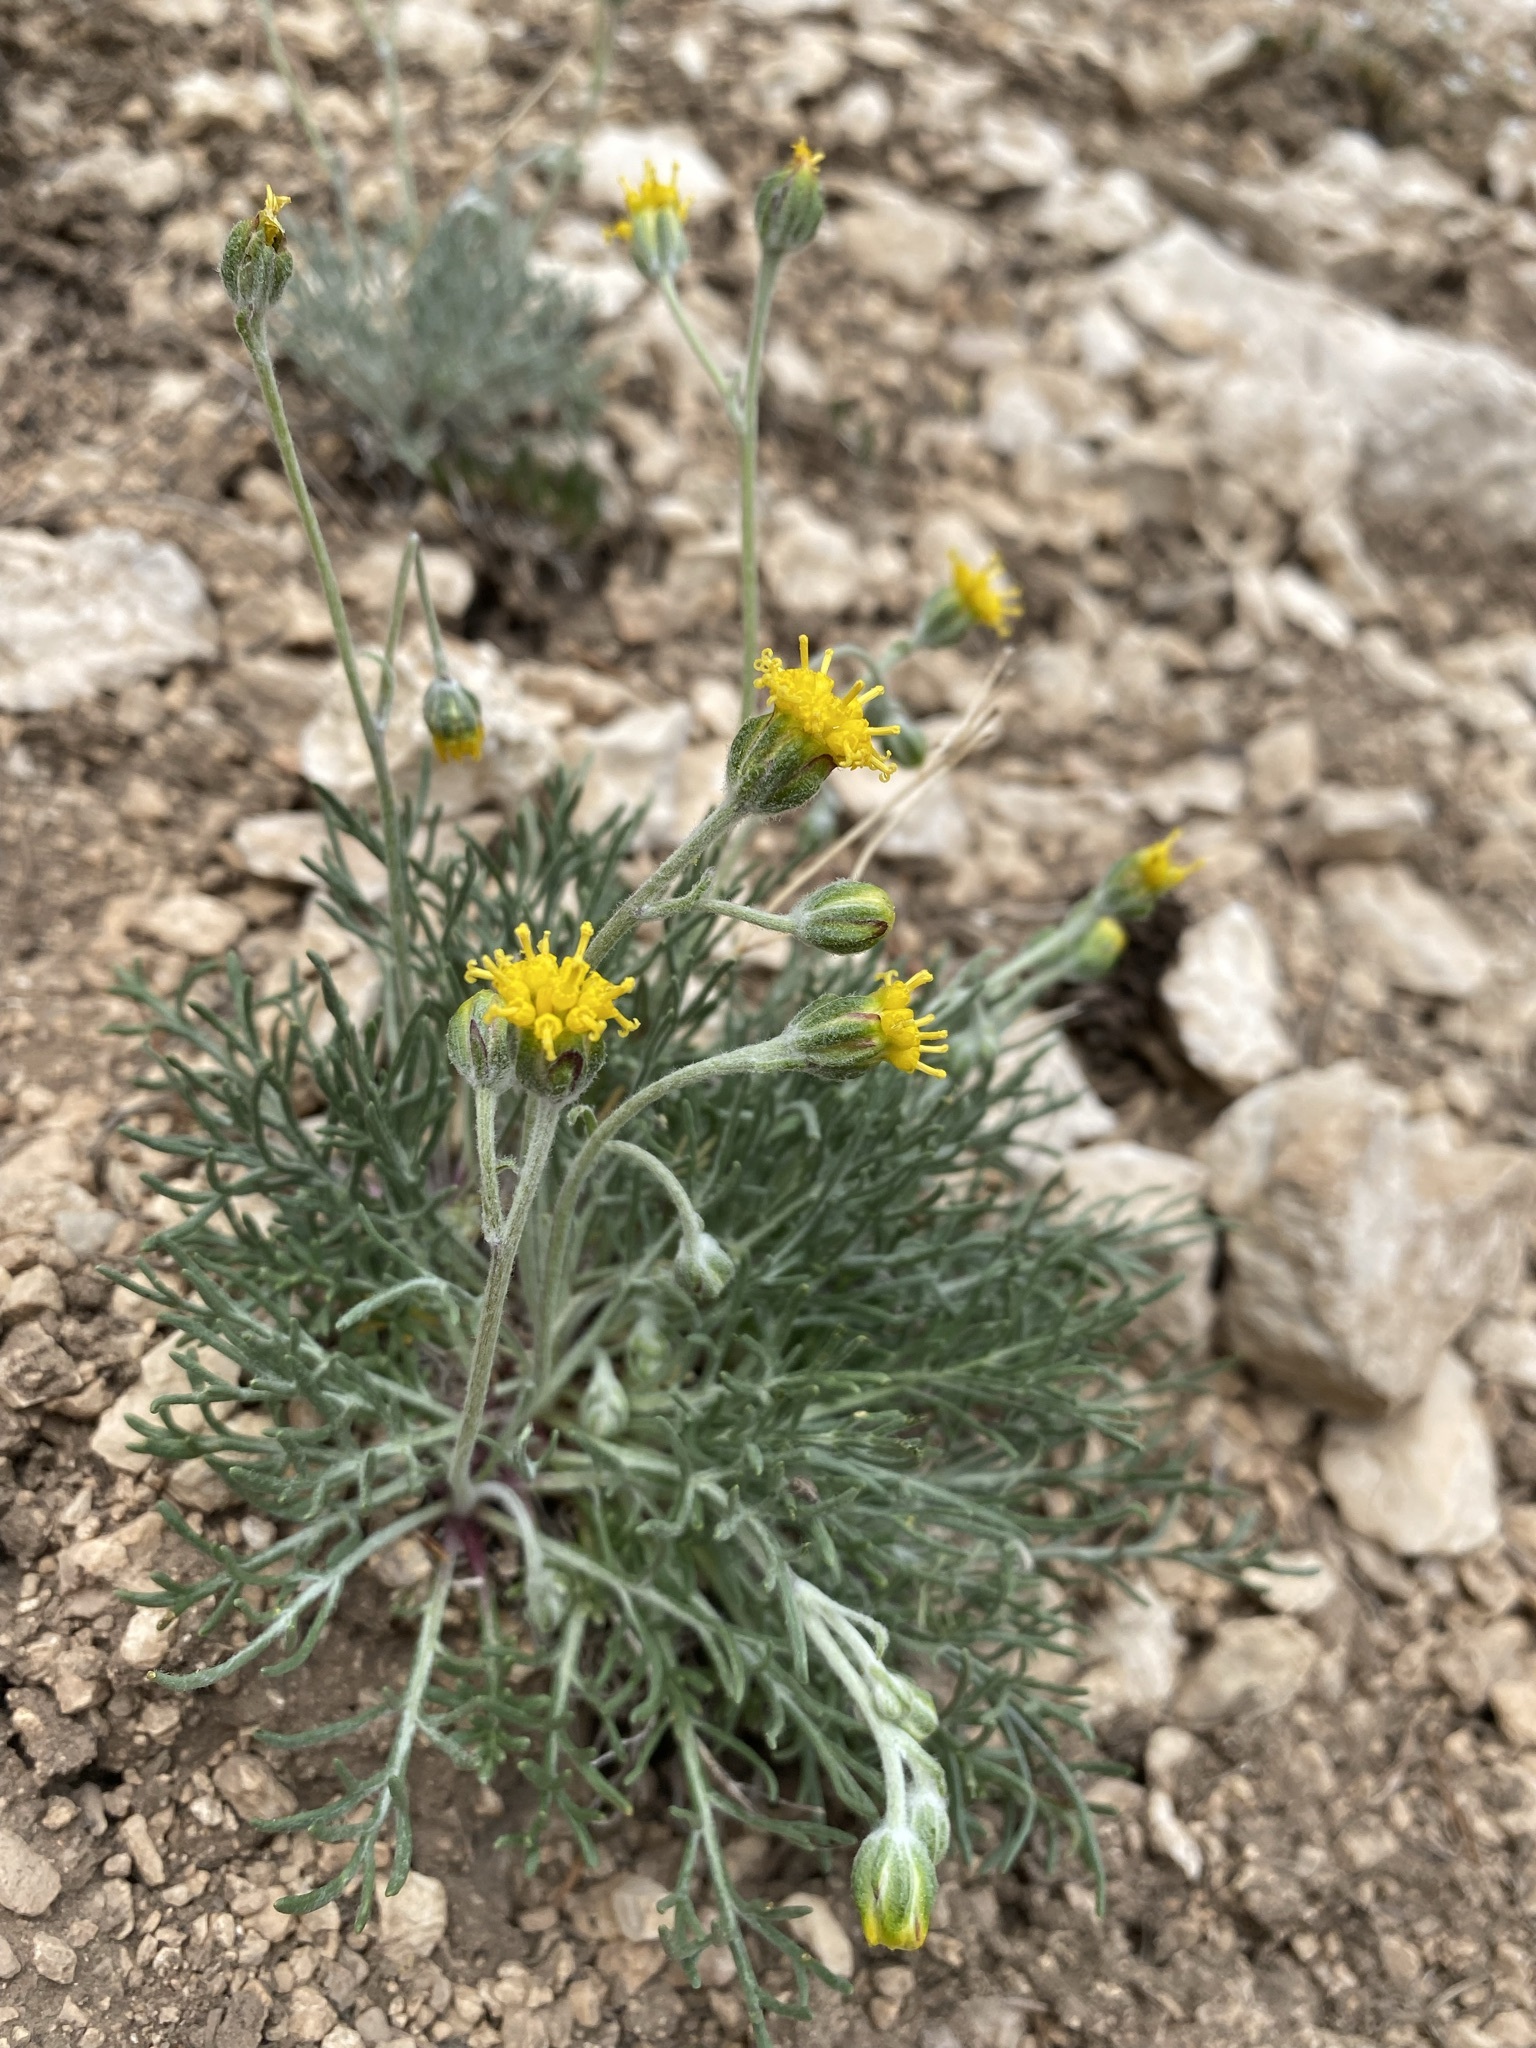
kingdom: Plantae
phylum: Tracheophyta
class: Magnoliopsida
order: Asterales
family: Asteraceae
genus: Hymenopappus
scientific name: Hymenopappus filifolius
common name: Columbia cutleaf
